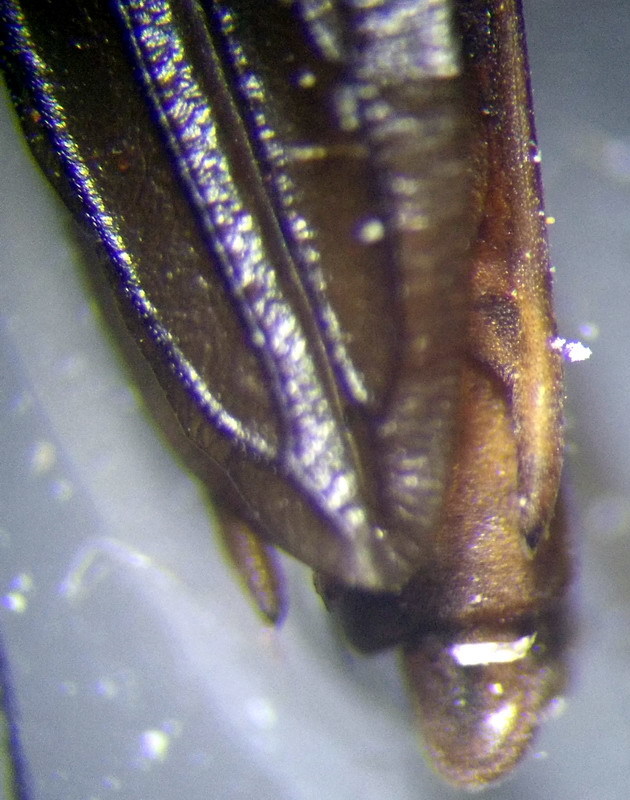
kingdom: Animalia
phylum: Arthropoda
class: Insecta
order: Hemiptera
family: Gerridae
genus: Limnoporus
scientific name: Limnoporus rufoscutellatus
